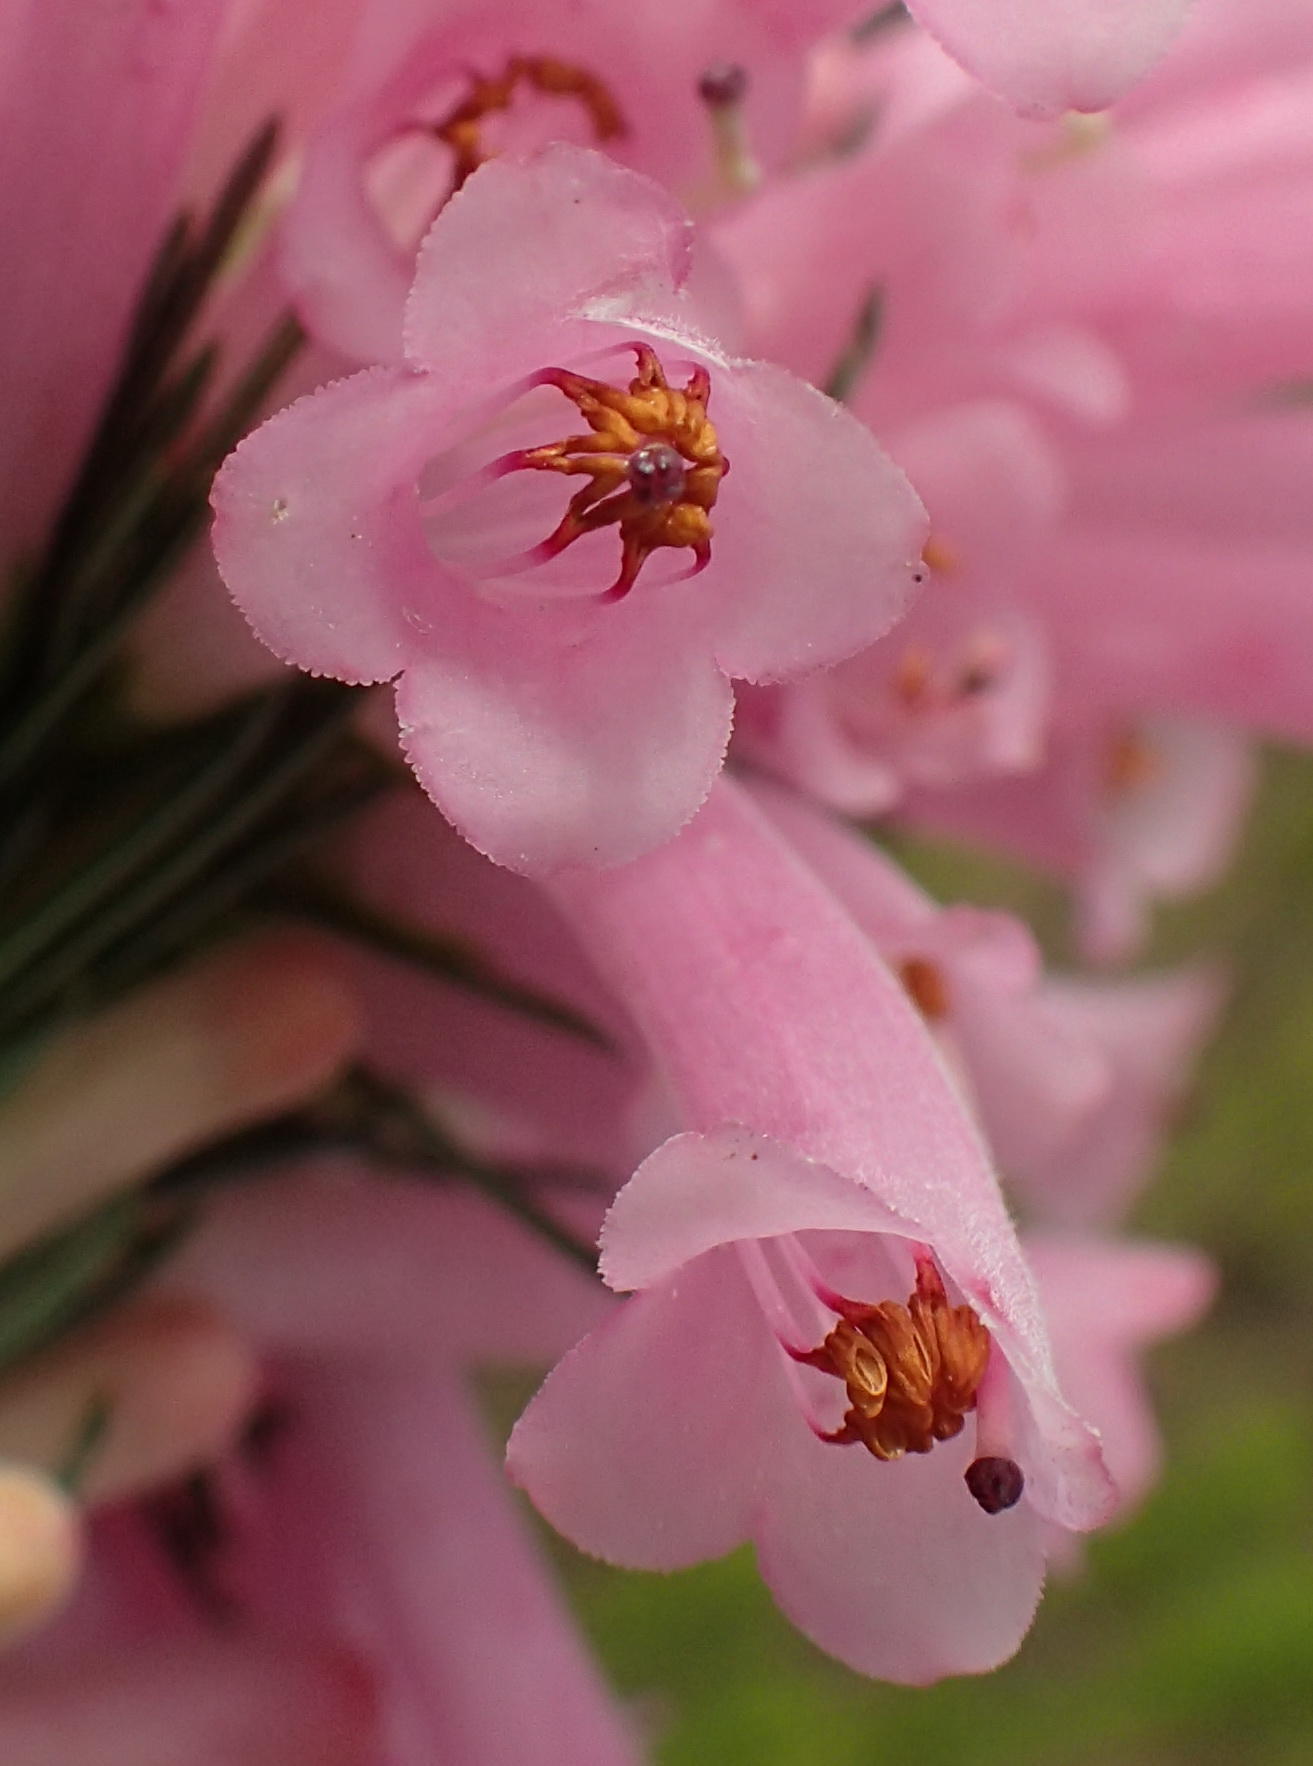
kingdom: Plantae
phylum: Tracheophyta
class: Magnoliopsida
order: Ericales
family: Ericaceae
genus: Erica
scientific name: Erica vestita
